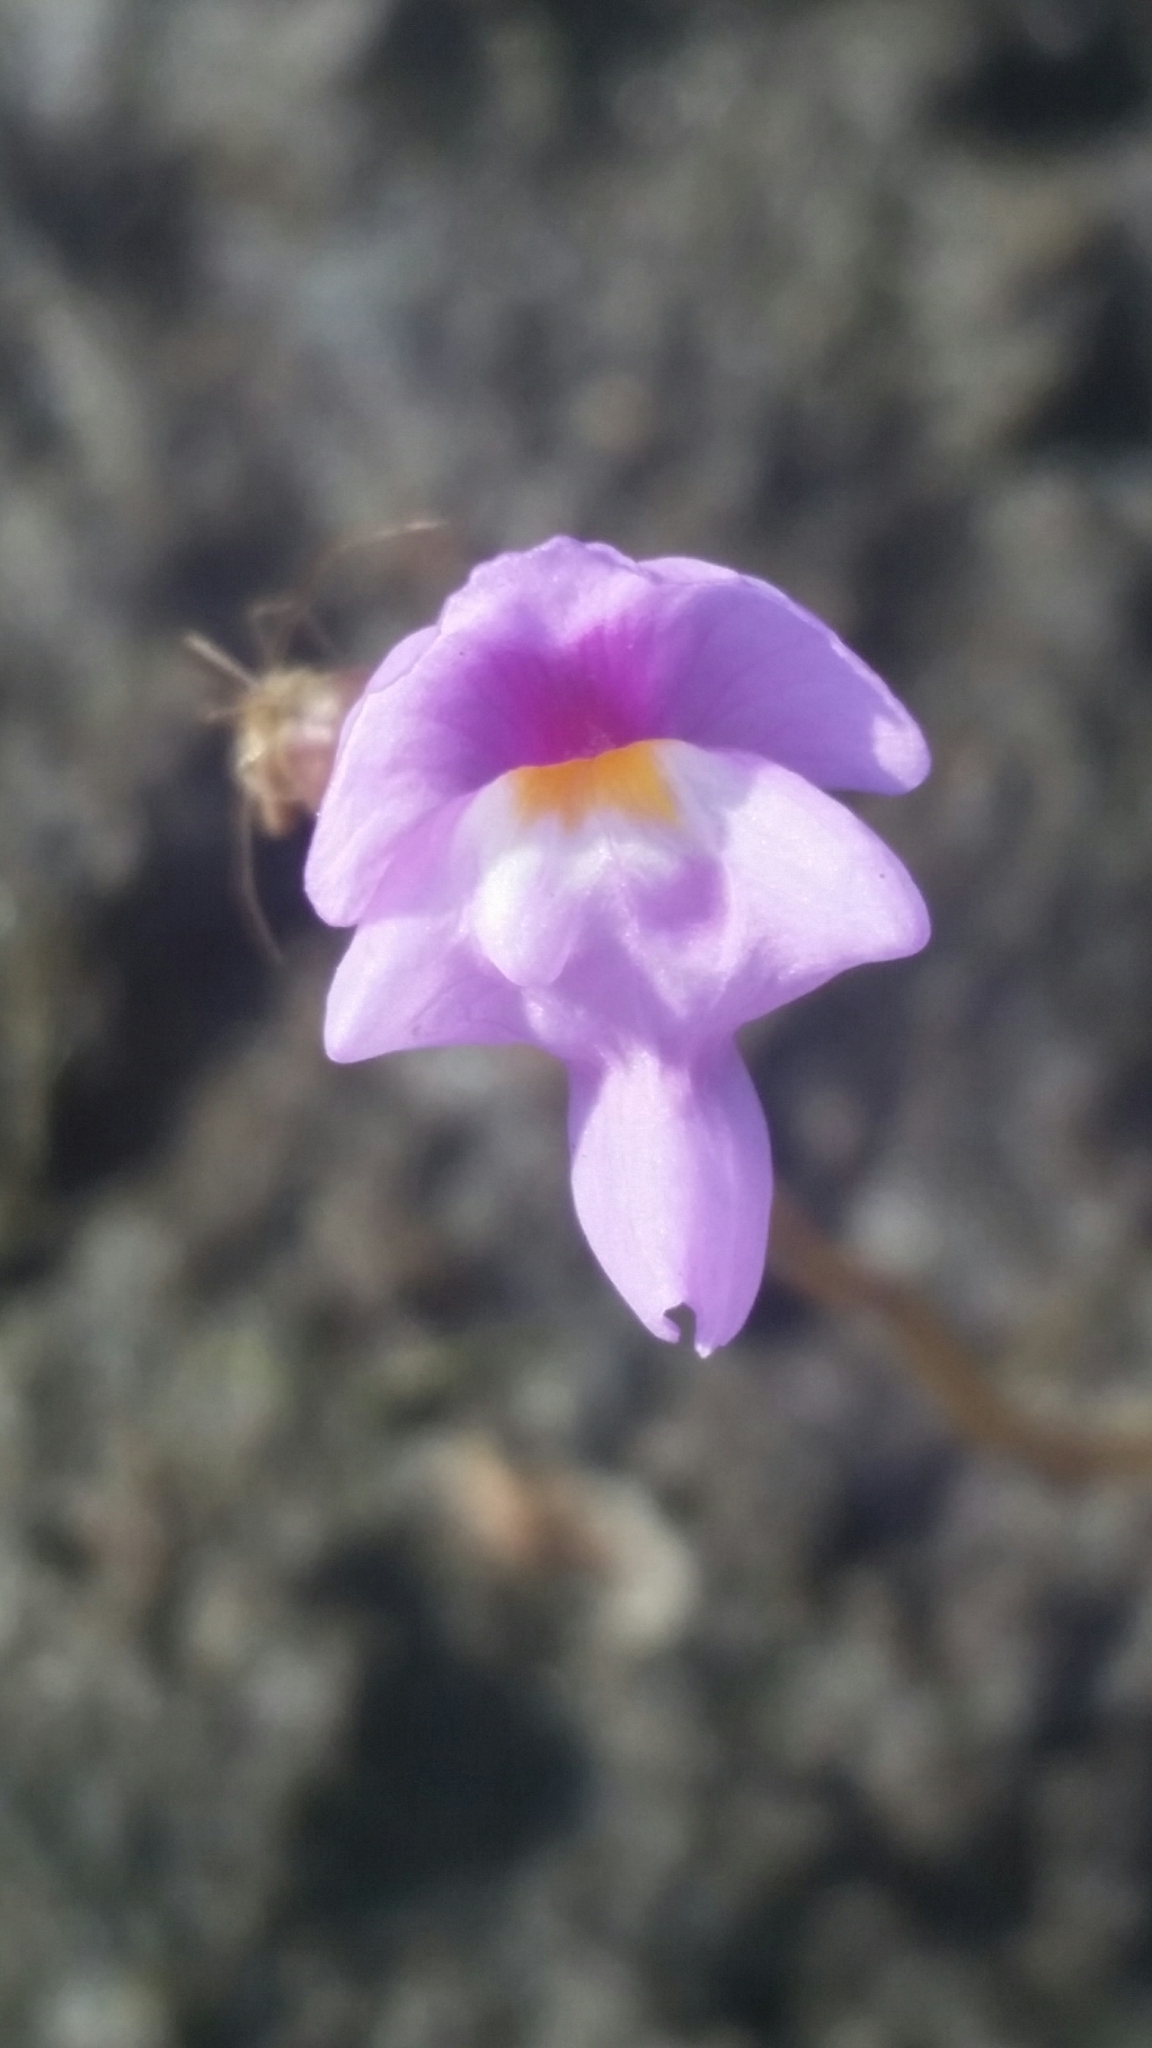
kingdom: Plantae
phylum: Tracheophyta
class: Magnoliopsida
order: Lamiales
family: Lentibulariaceae
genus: Utricularia
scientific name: Utricularia purpurea
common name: Eastern purple bladderwort
